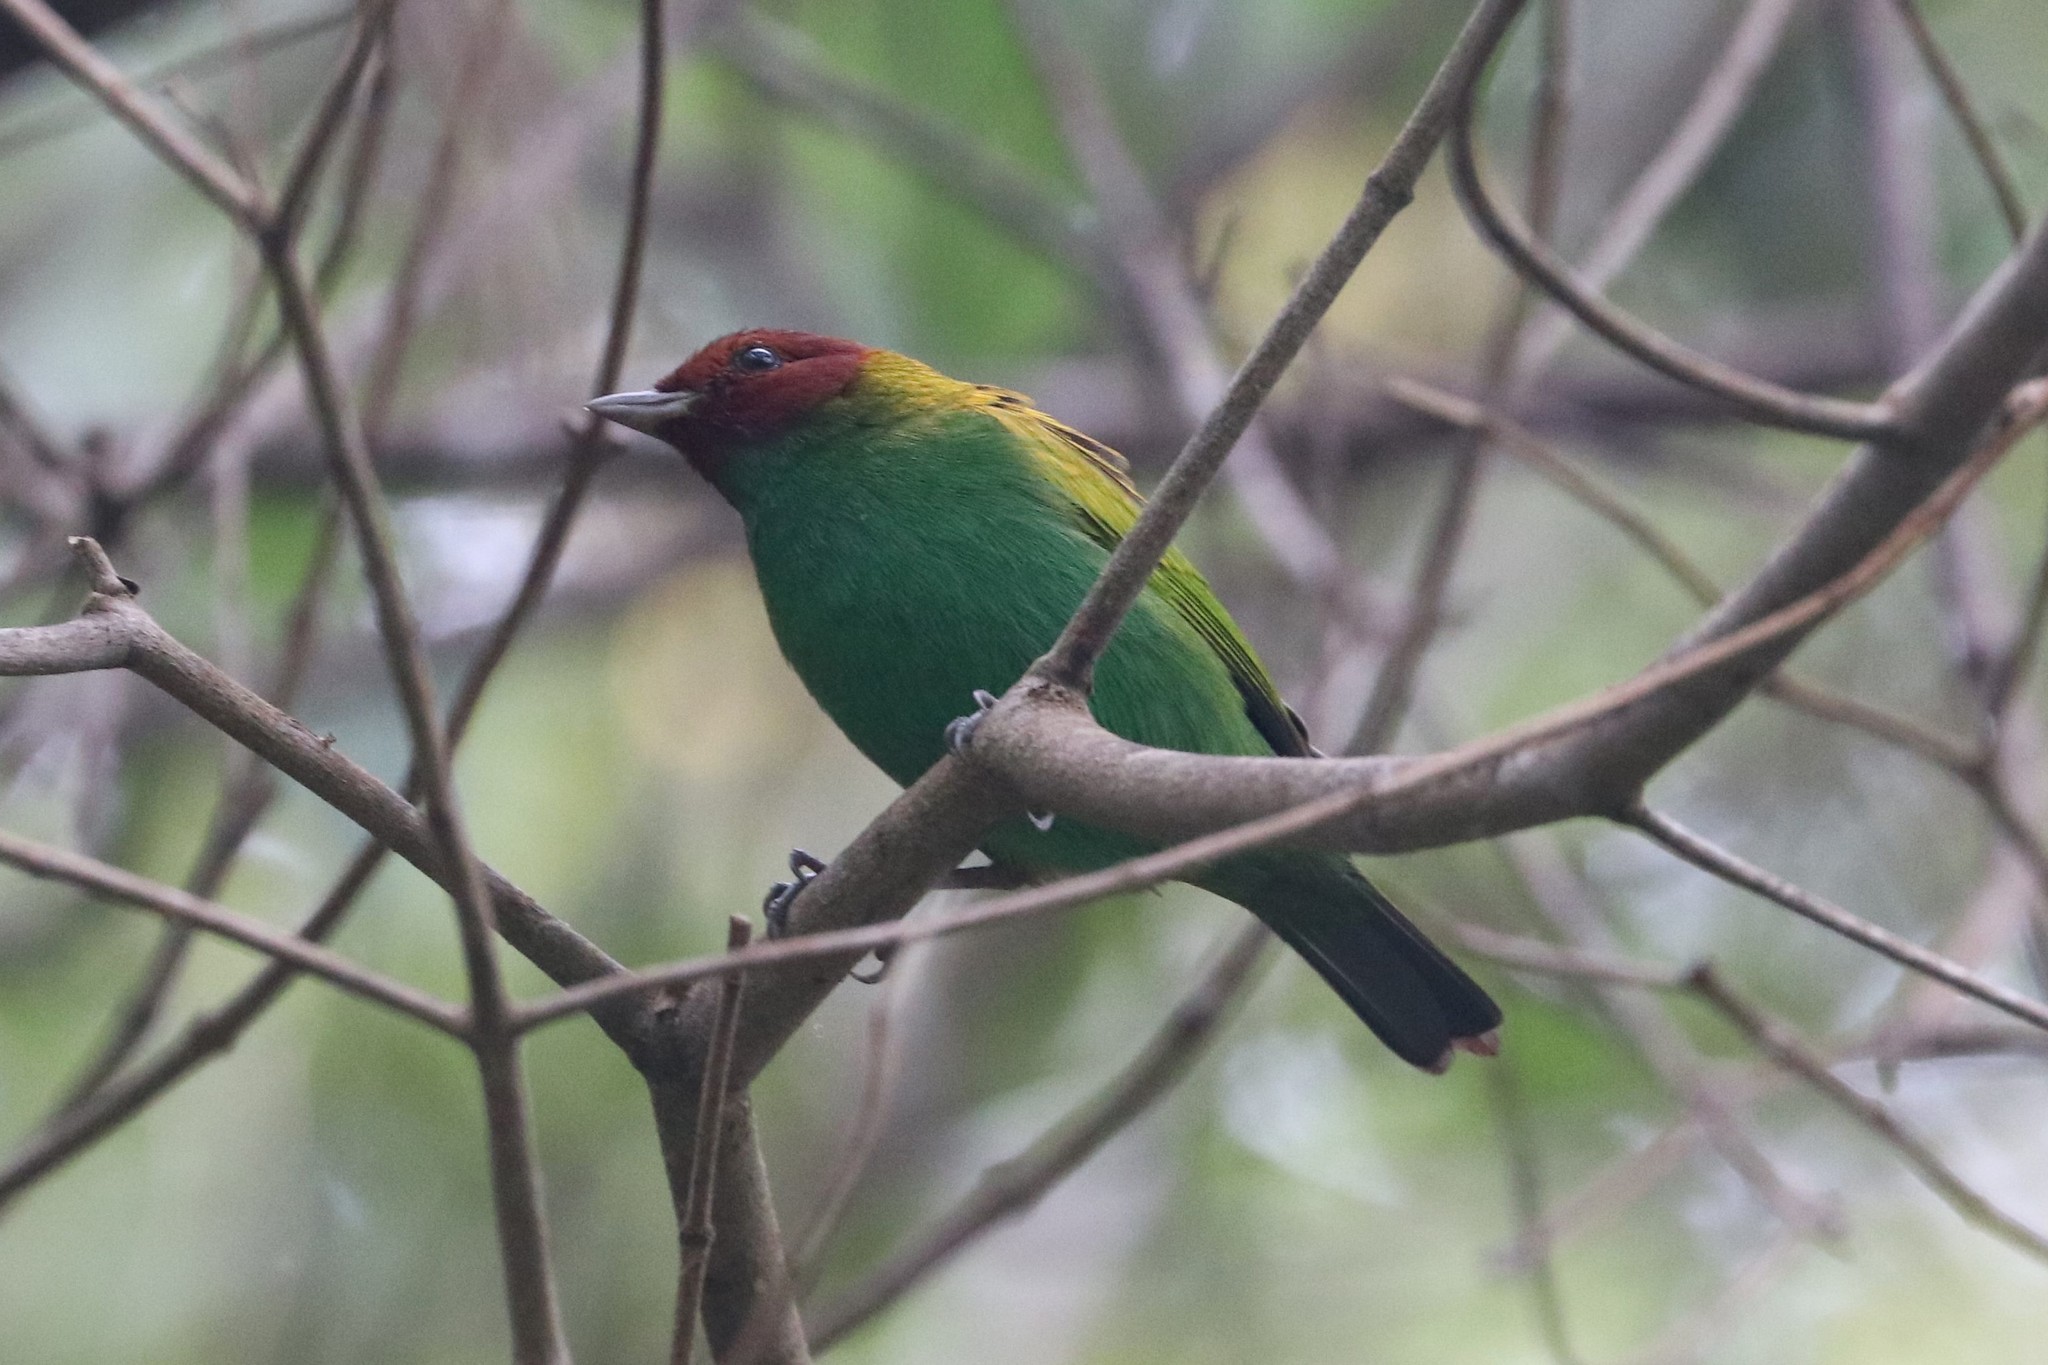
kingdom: Animalia
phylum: Chordata
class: Aves
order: Passeriformes
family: Thraupidae
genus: Tangara
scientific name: Tangara gyrola
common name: Bay-headed tanager
